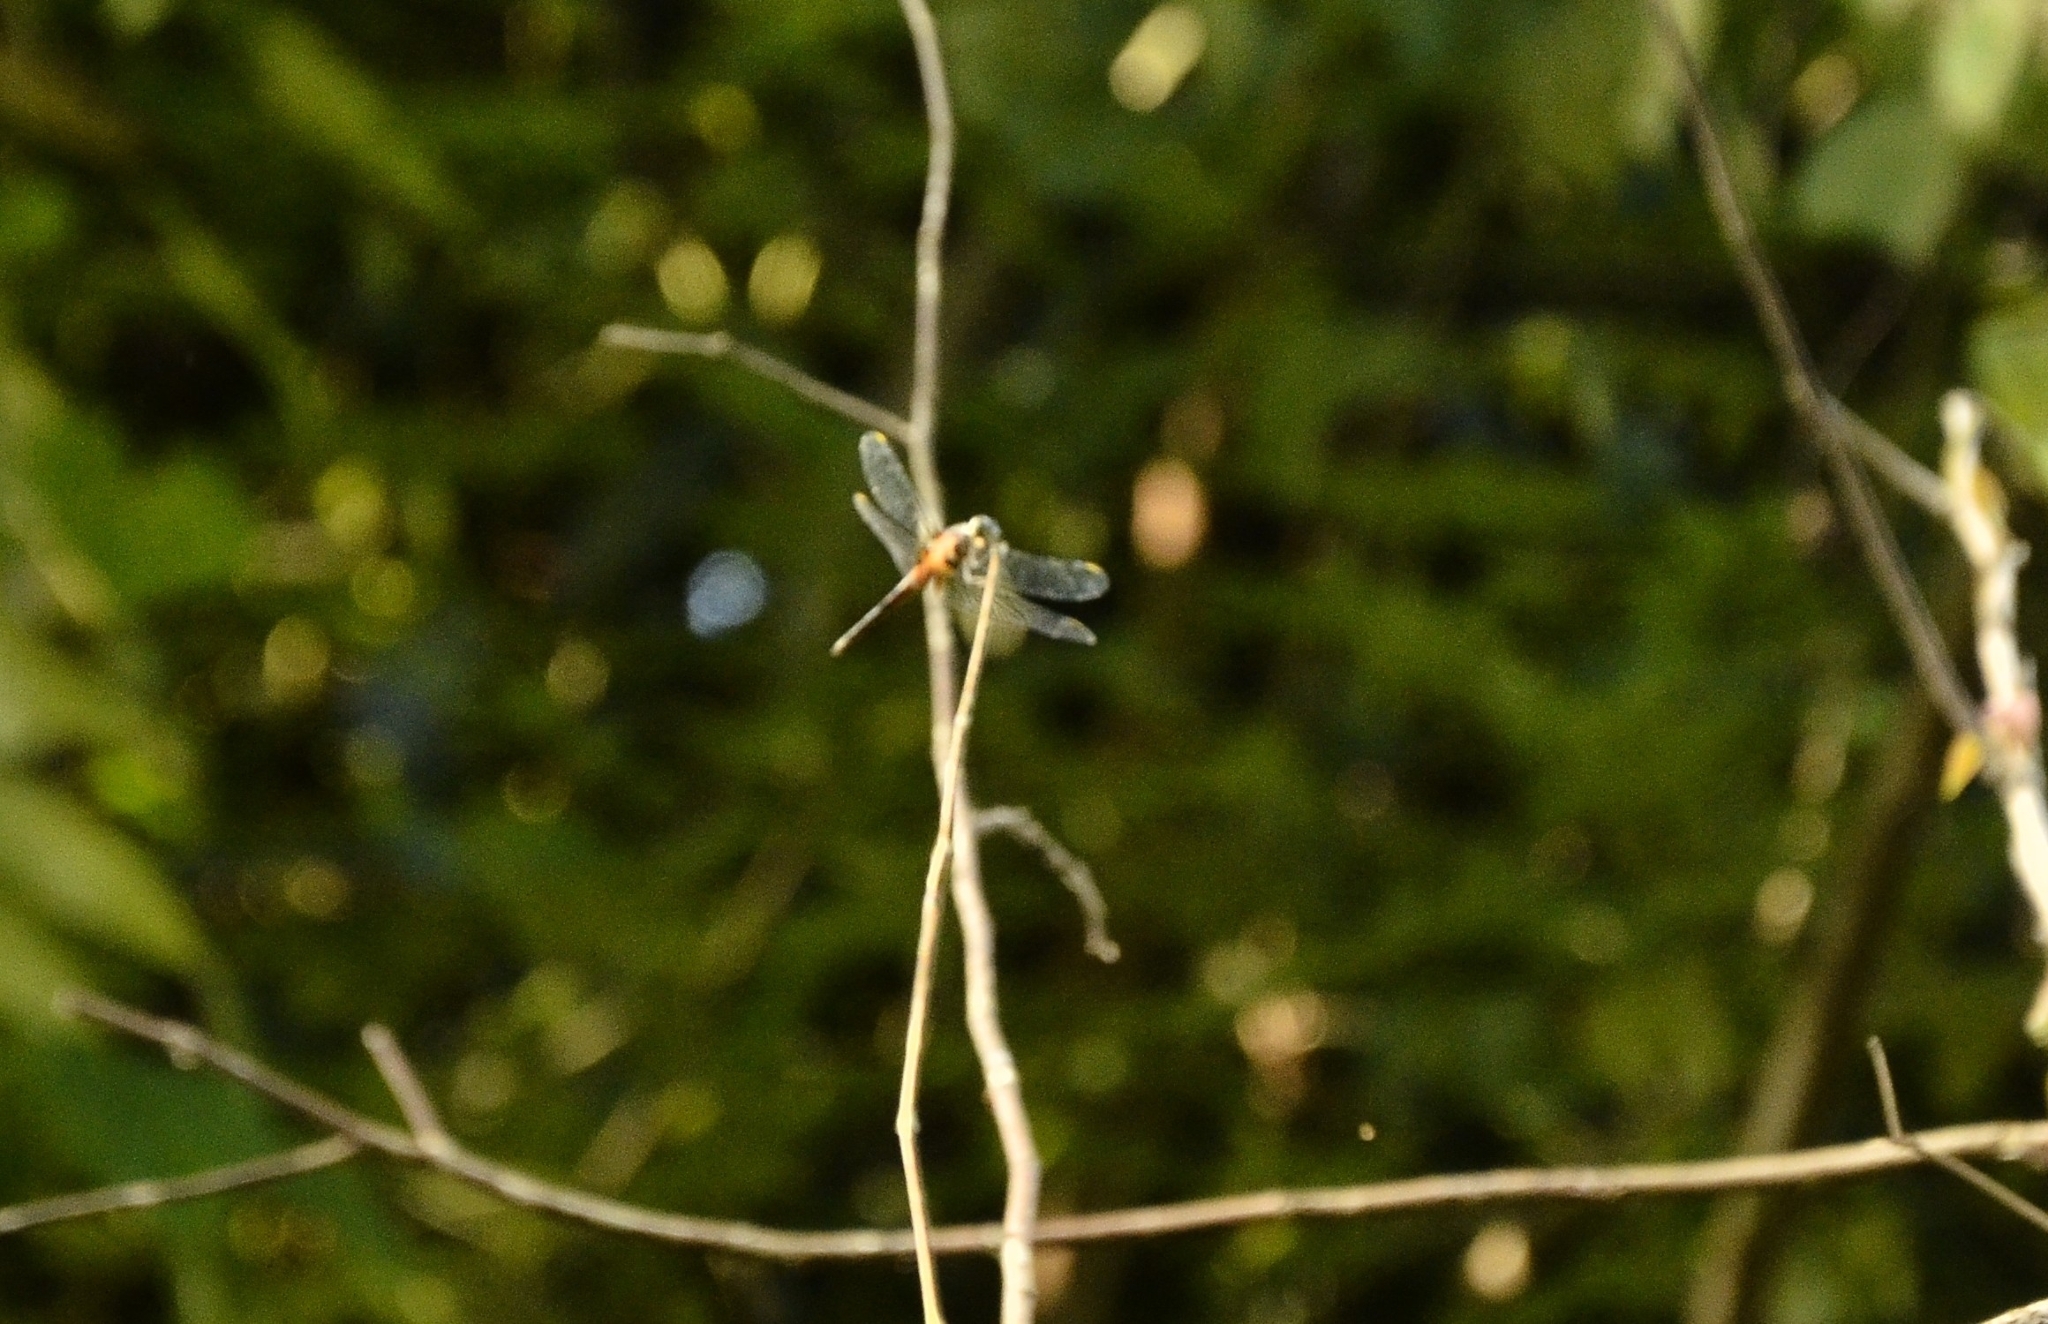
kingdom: Animalia
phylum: Arthropoda
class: Insecta
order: Odonata
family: Libellulidae
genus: Brachydiplax
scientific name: Brachydiplax chalybea
